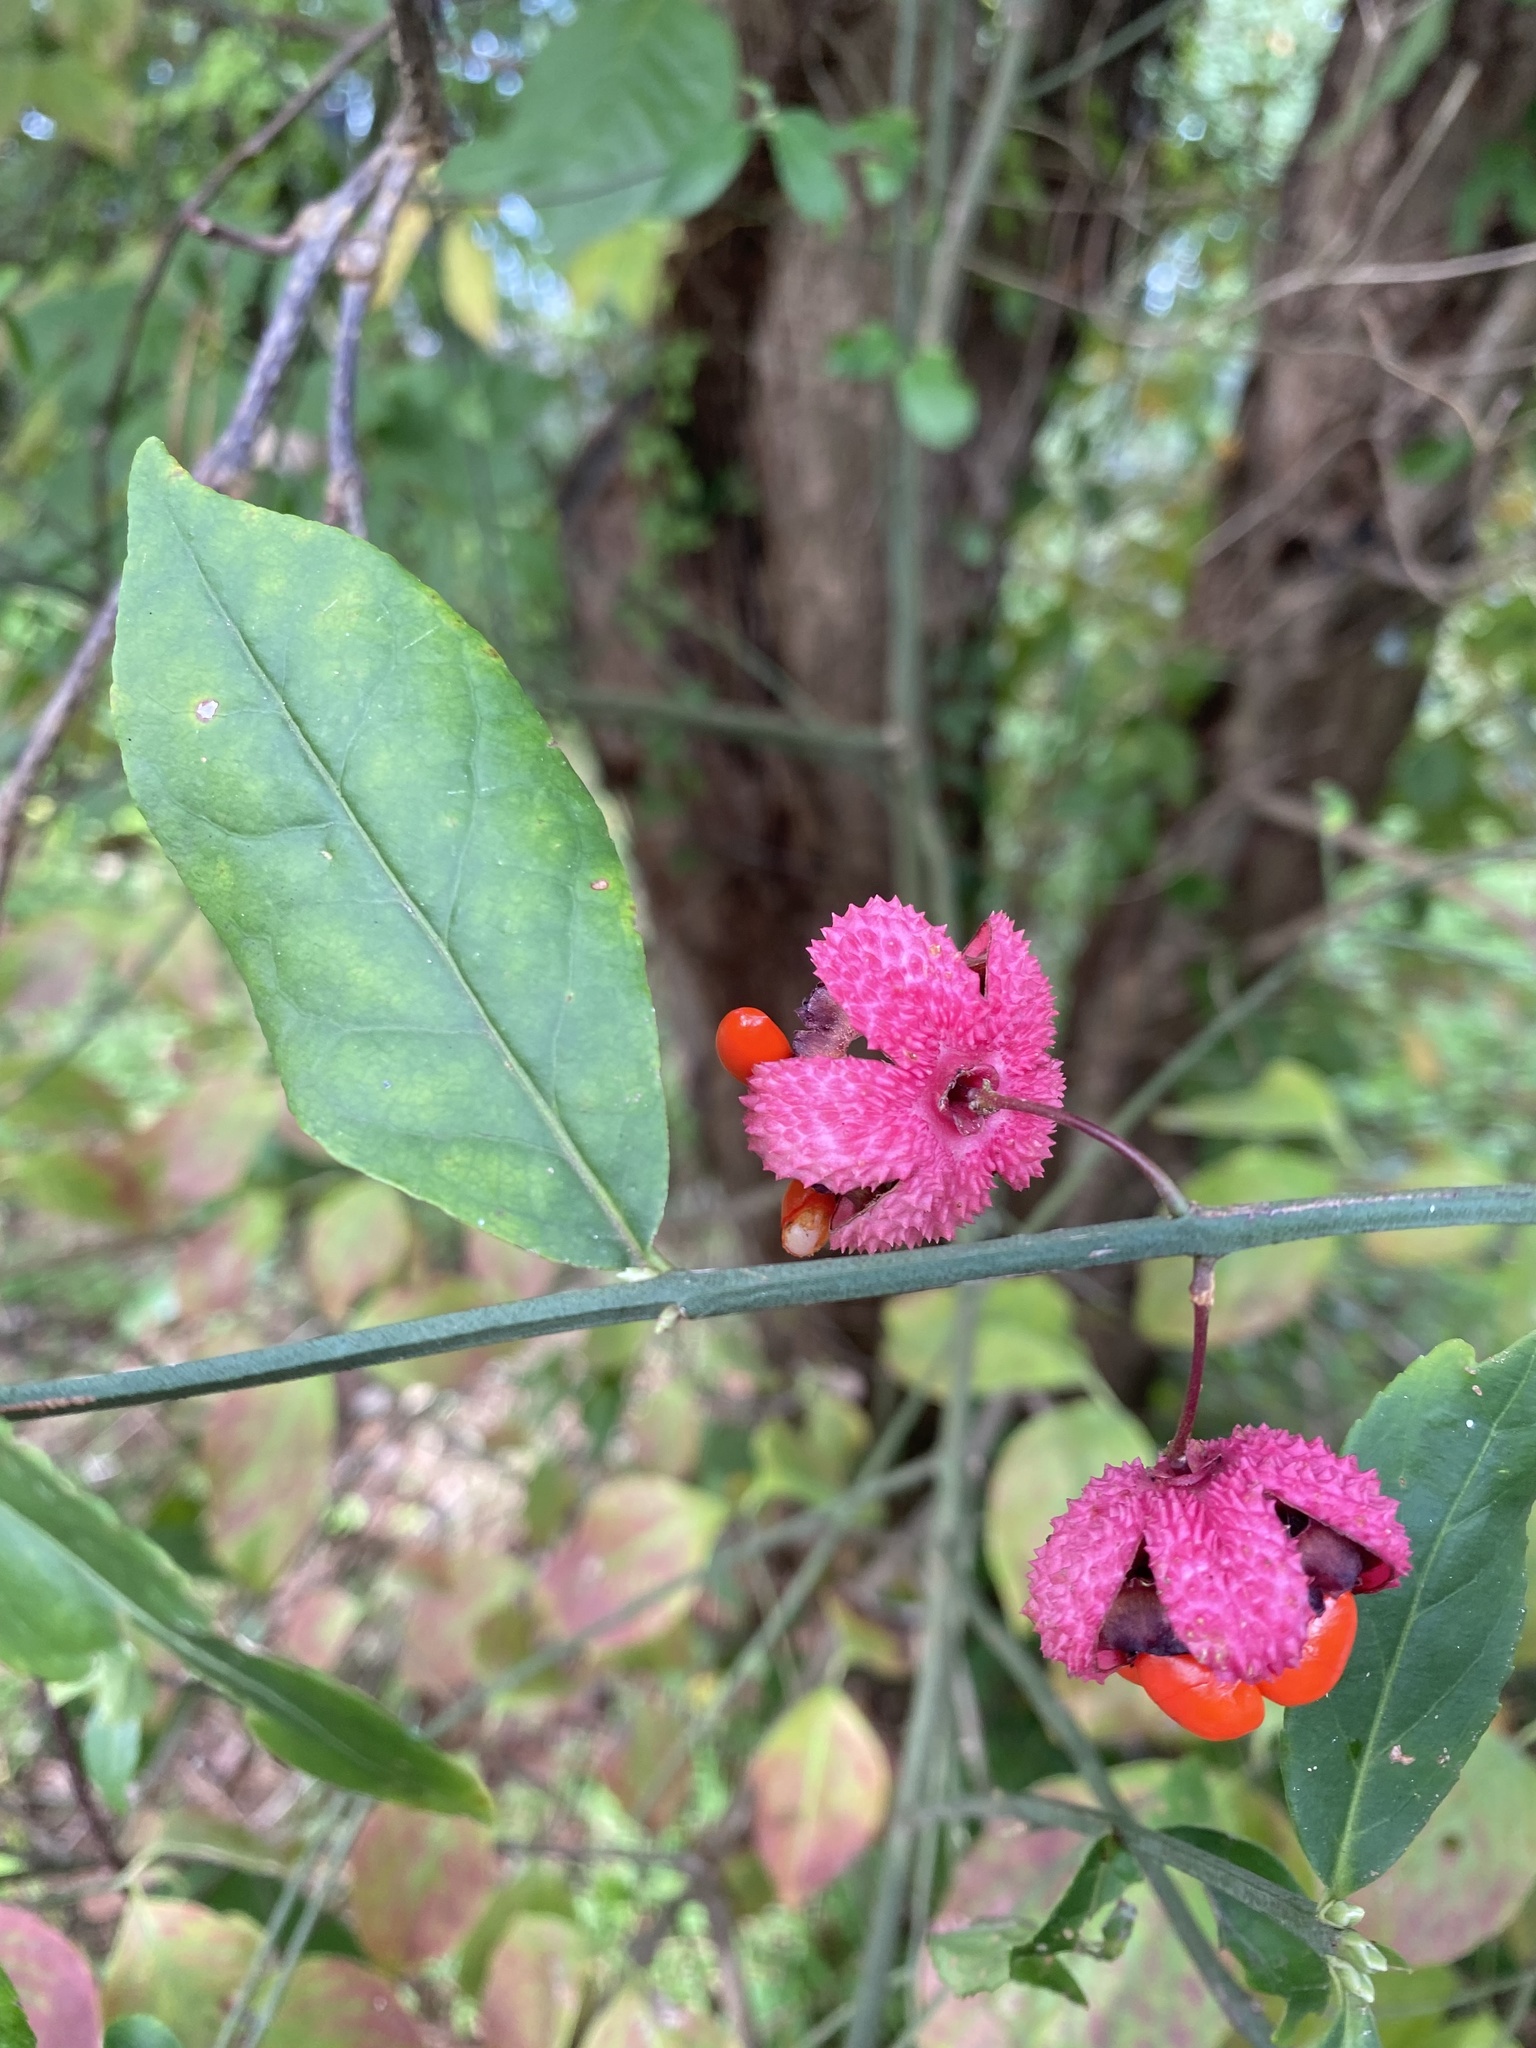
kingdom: Plantae
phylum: Tracheophyta
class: Magnoliopsida
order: Celastrales
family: Celastraceae
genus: Euonymus
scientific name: Euonymus americanus
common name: Bursting-heart
